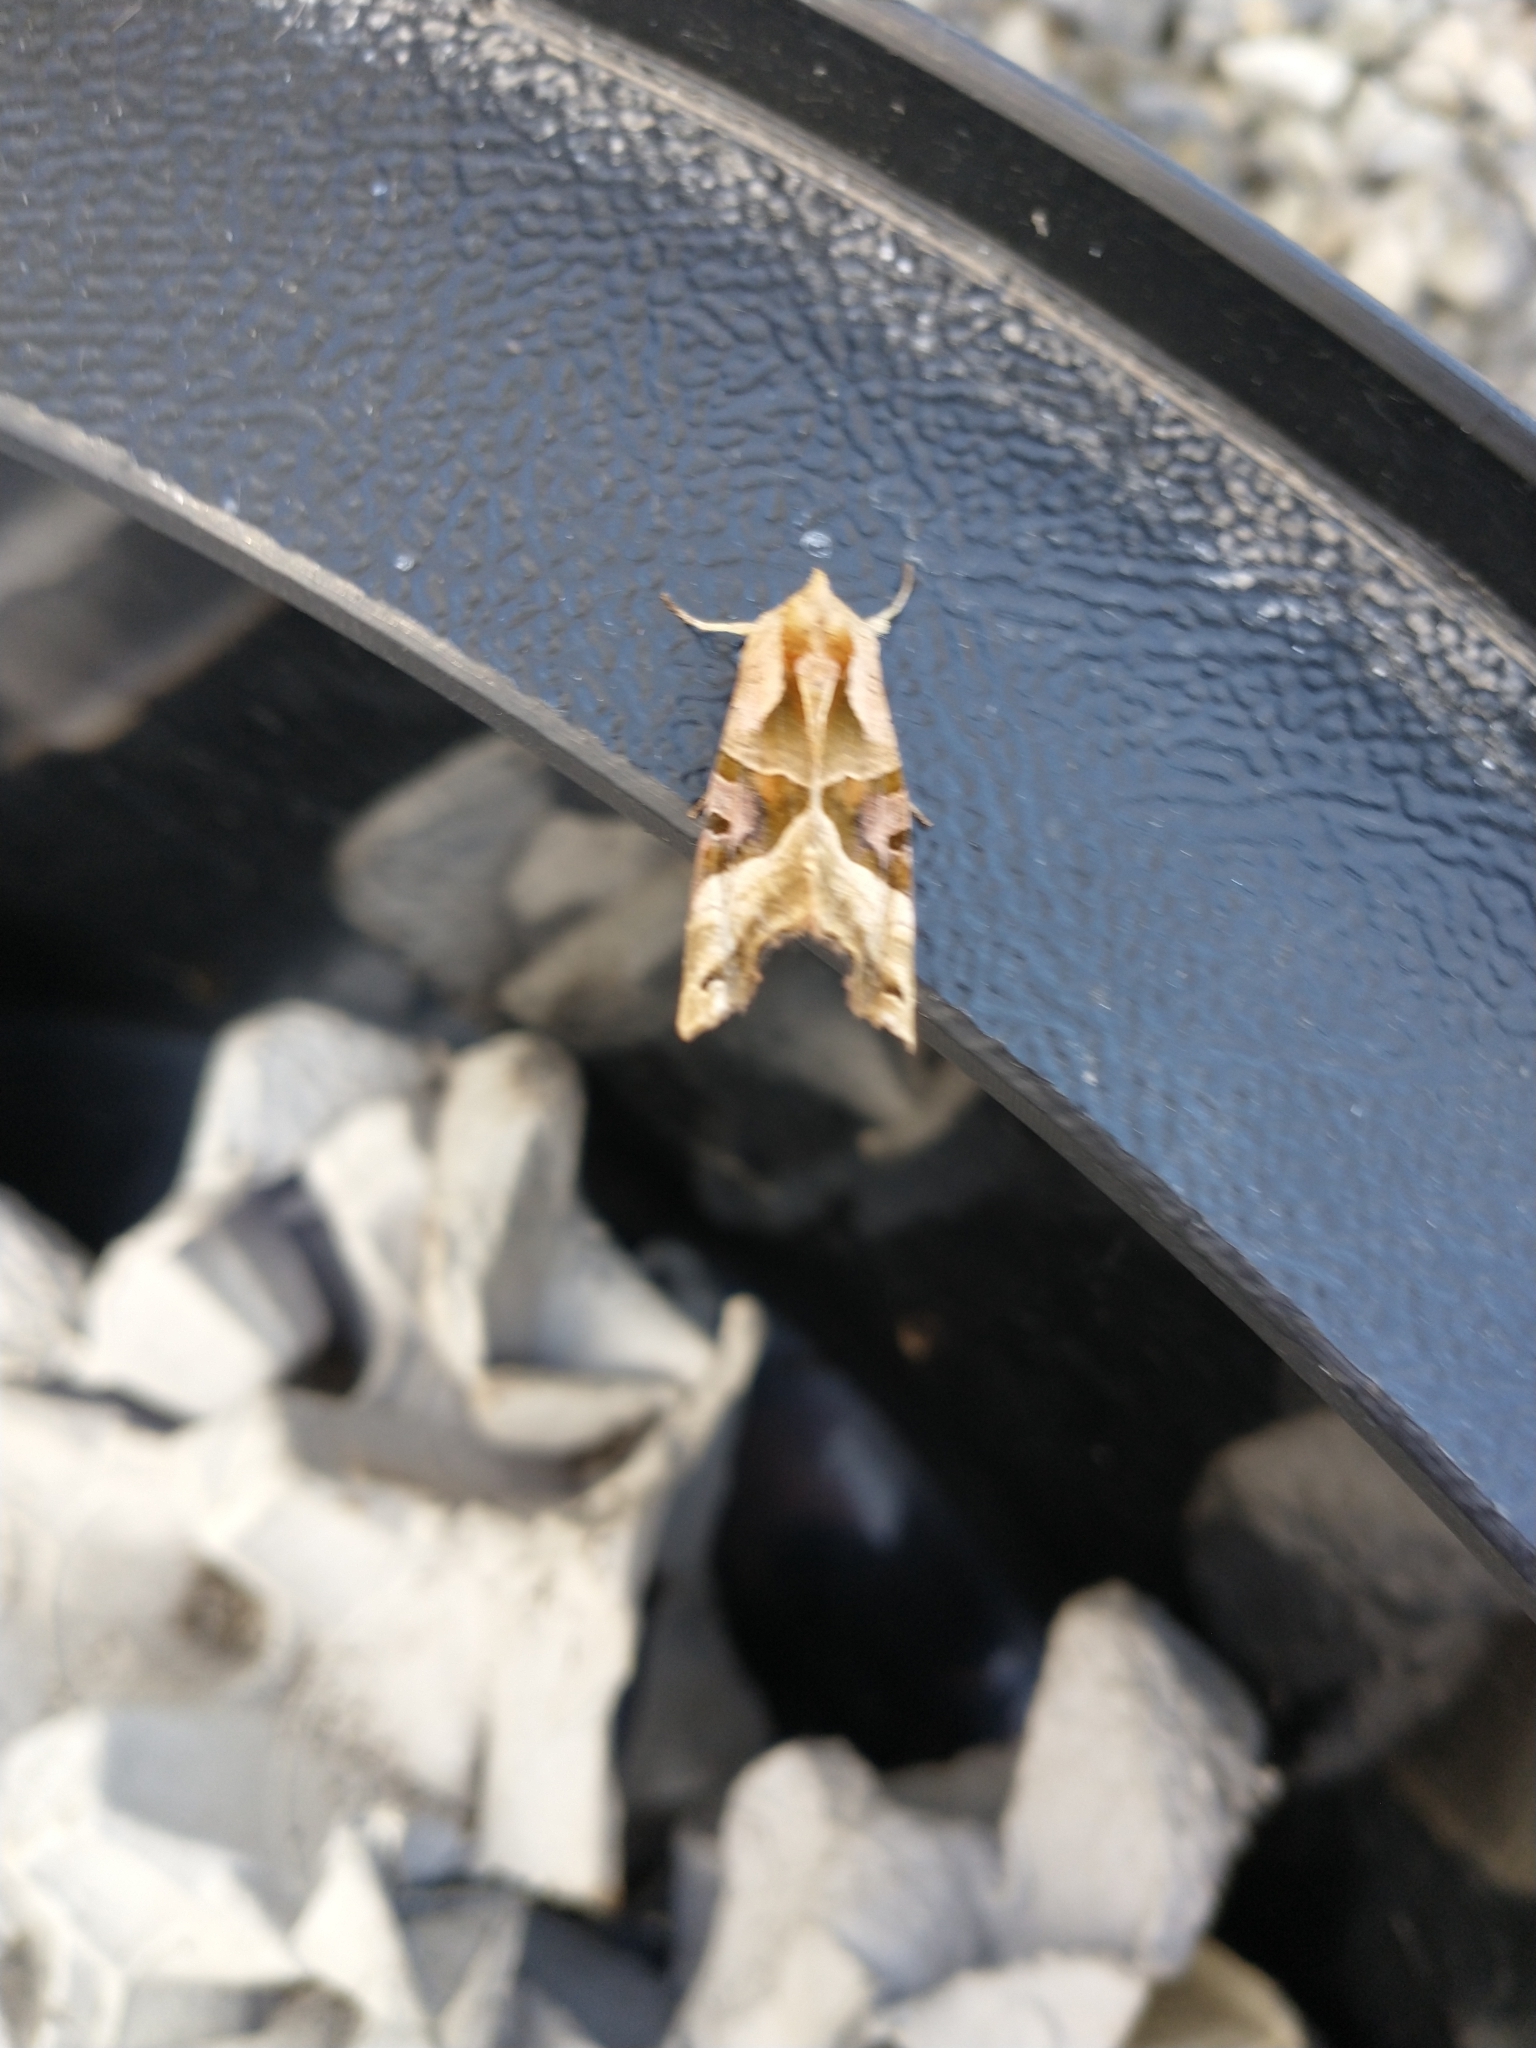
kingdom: Animalia
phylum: Arthropoda
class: Insecta
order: Lepidoptera
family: Noctuidae
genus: Phlogophora
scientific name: Phlogophora meticulosa
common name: Angle shades
